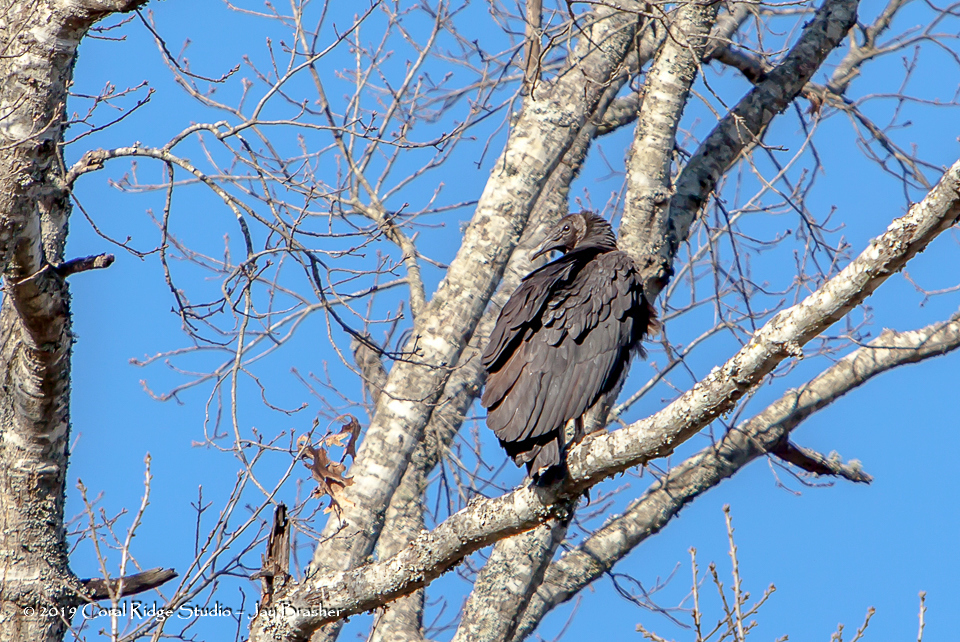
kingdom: Animalia
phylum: Chordata
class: Aves
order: Accipitriformes
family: Cathartidae
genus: Coragyps
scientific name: Coragyps atratus
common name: Black vulture
